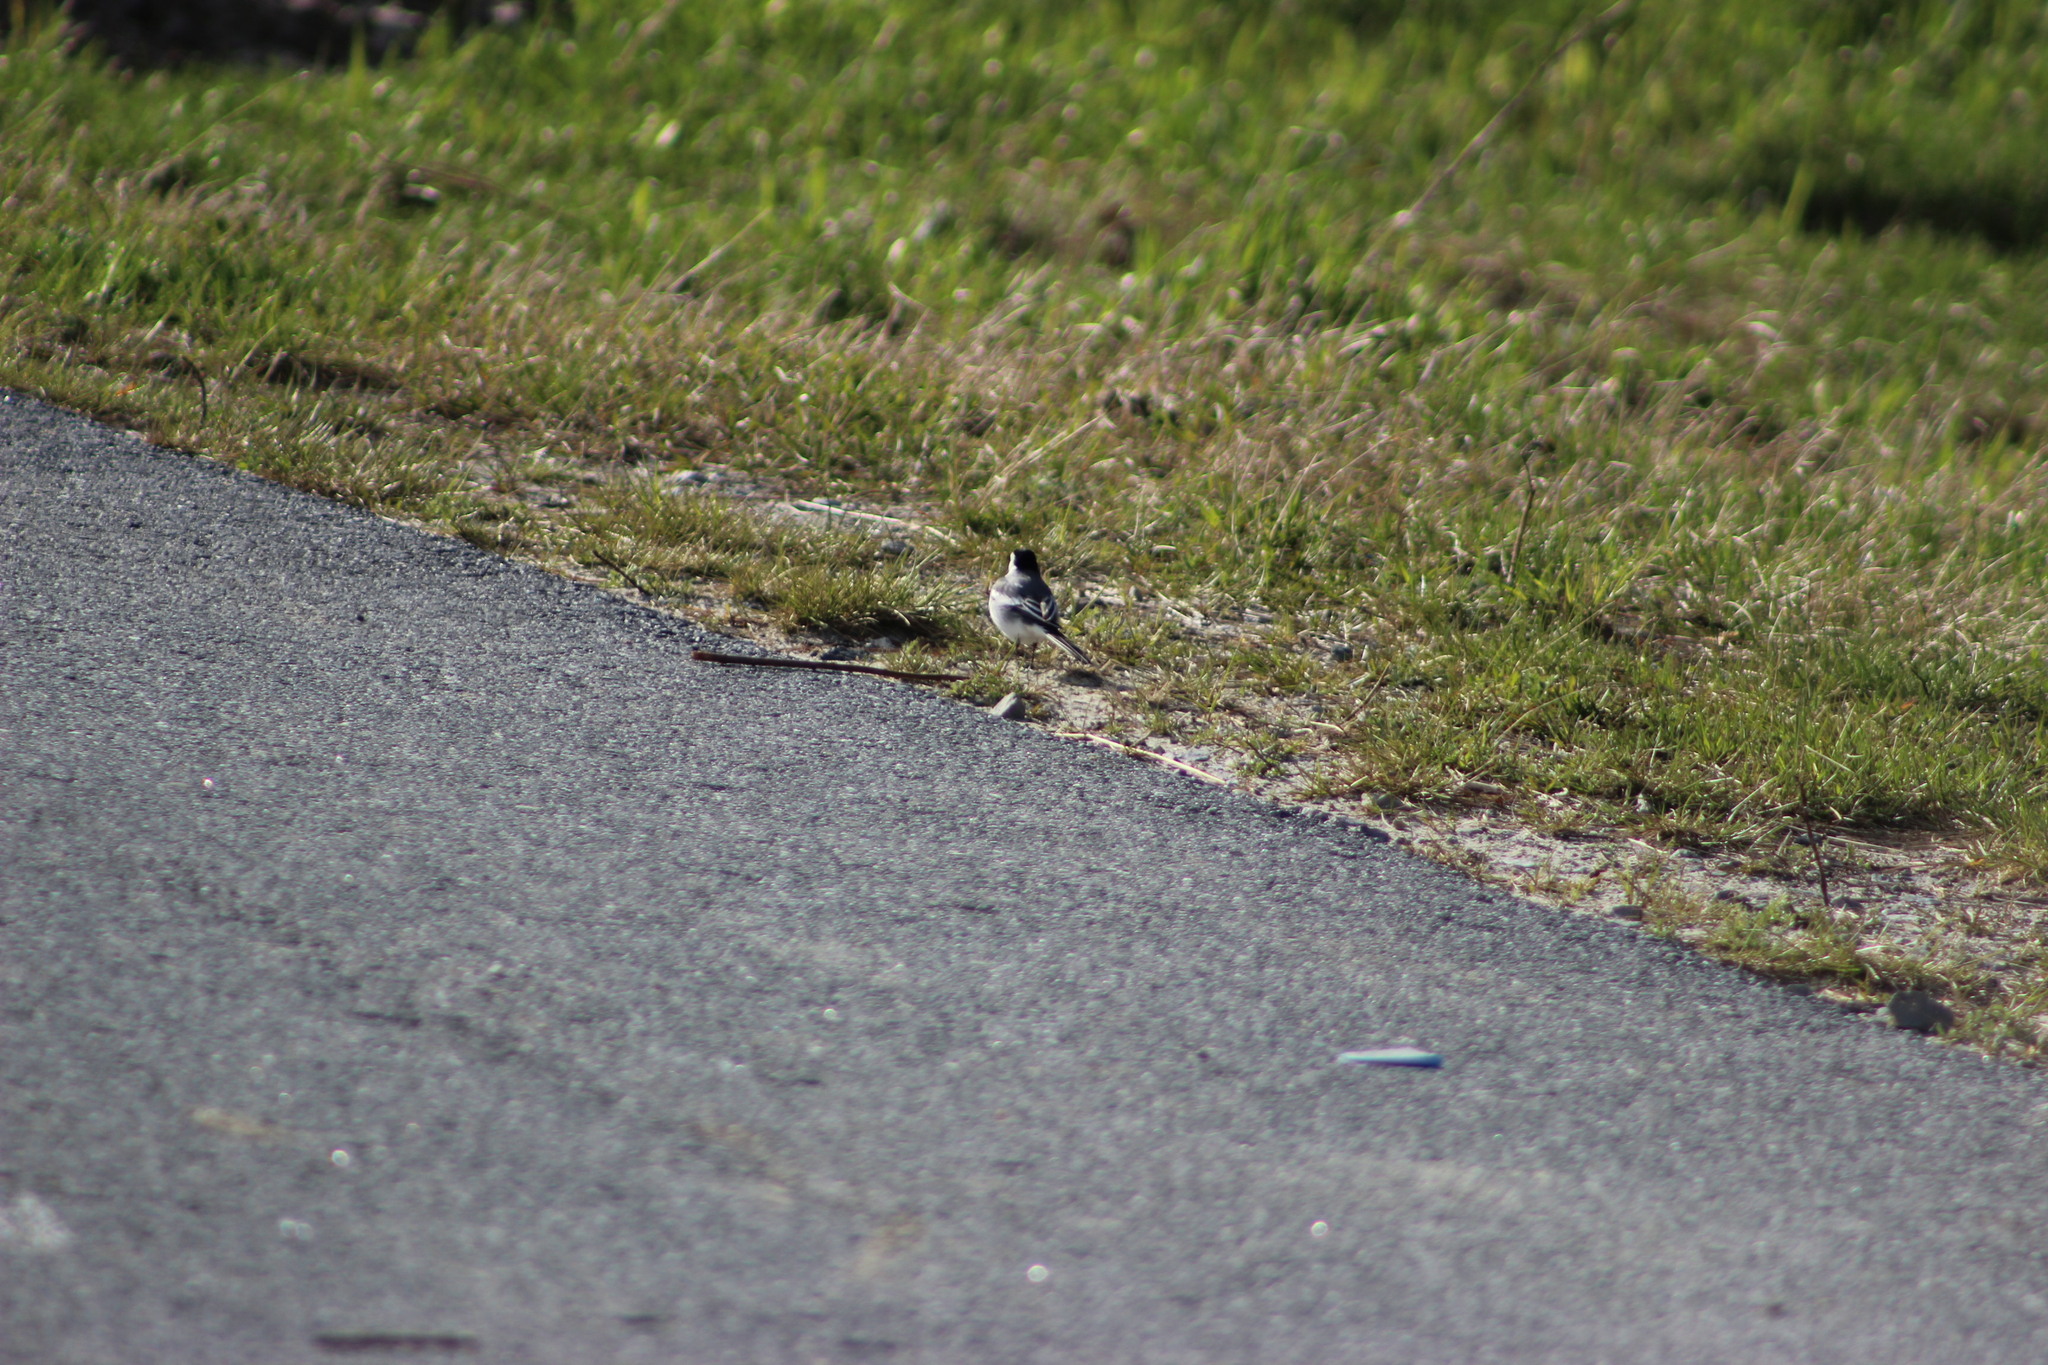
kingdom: Animalia
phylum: Chordata
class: Aves
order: Passeriformes
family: Motacillidae
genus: Motacilla
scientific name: Motacilla alba
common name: White wagtail
